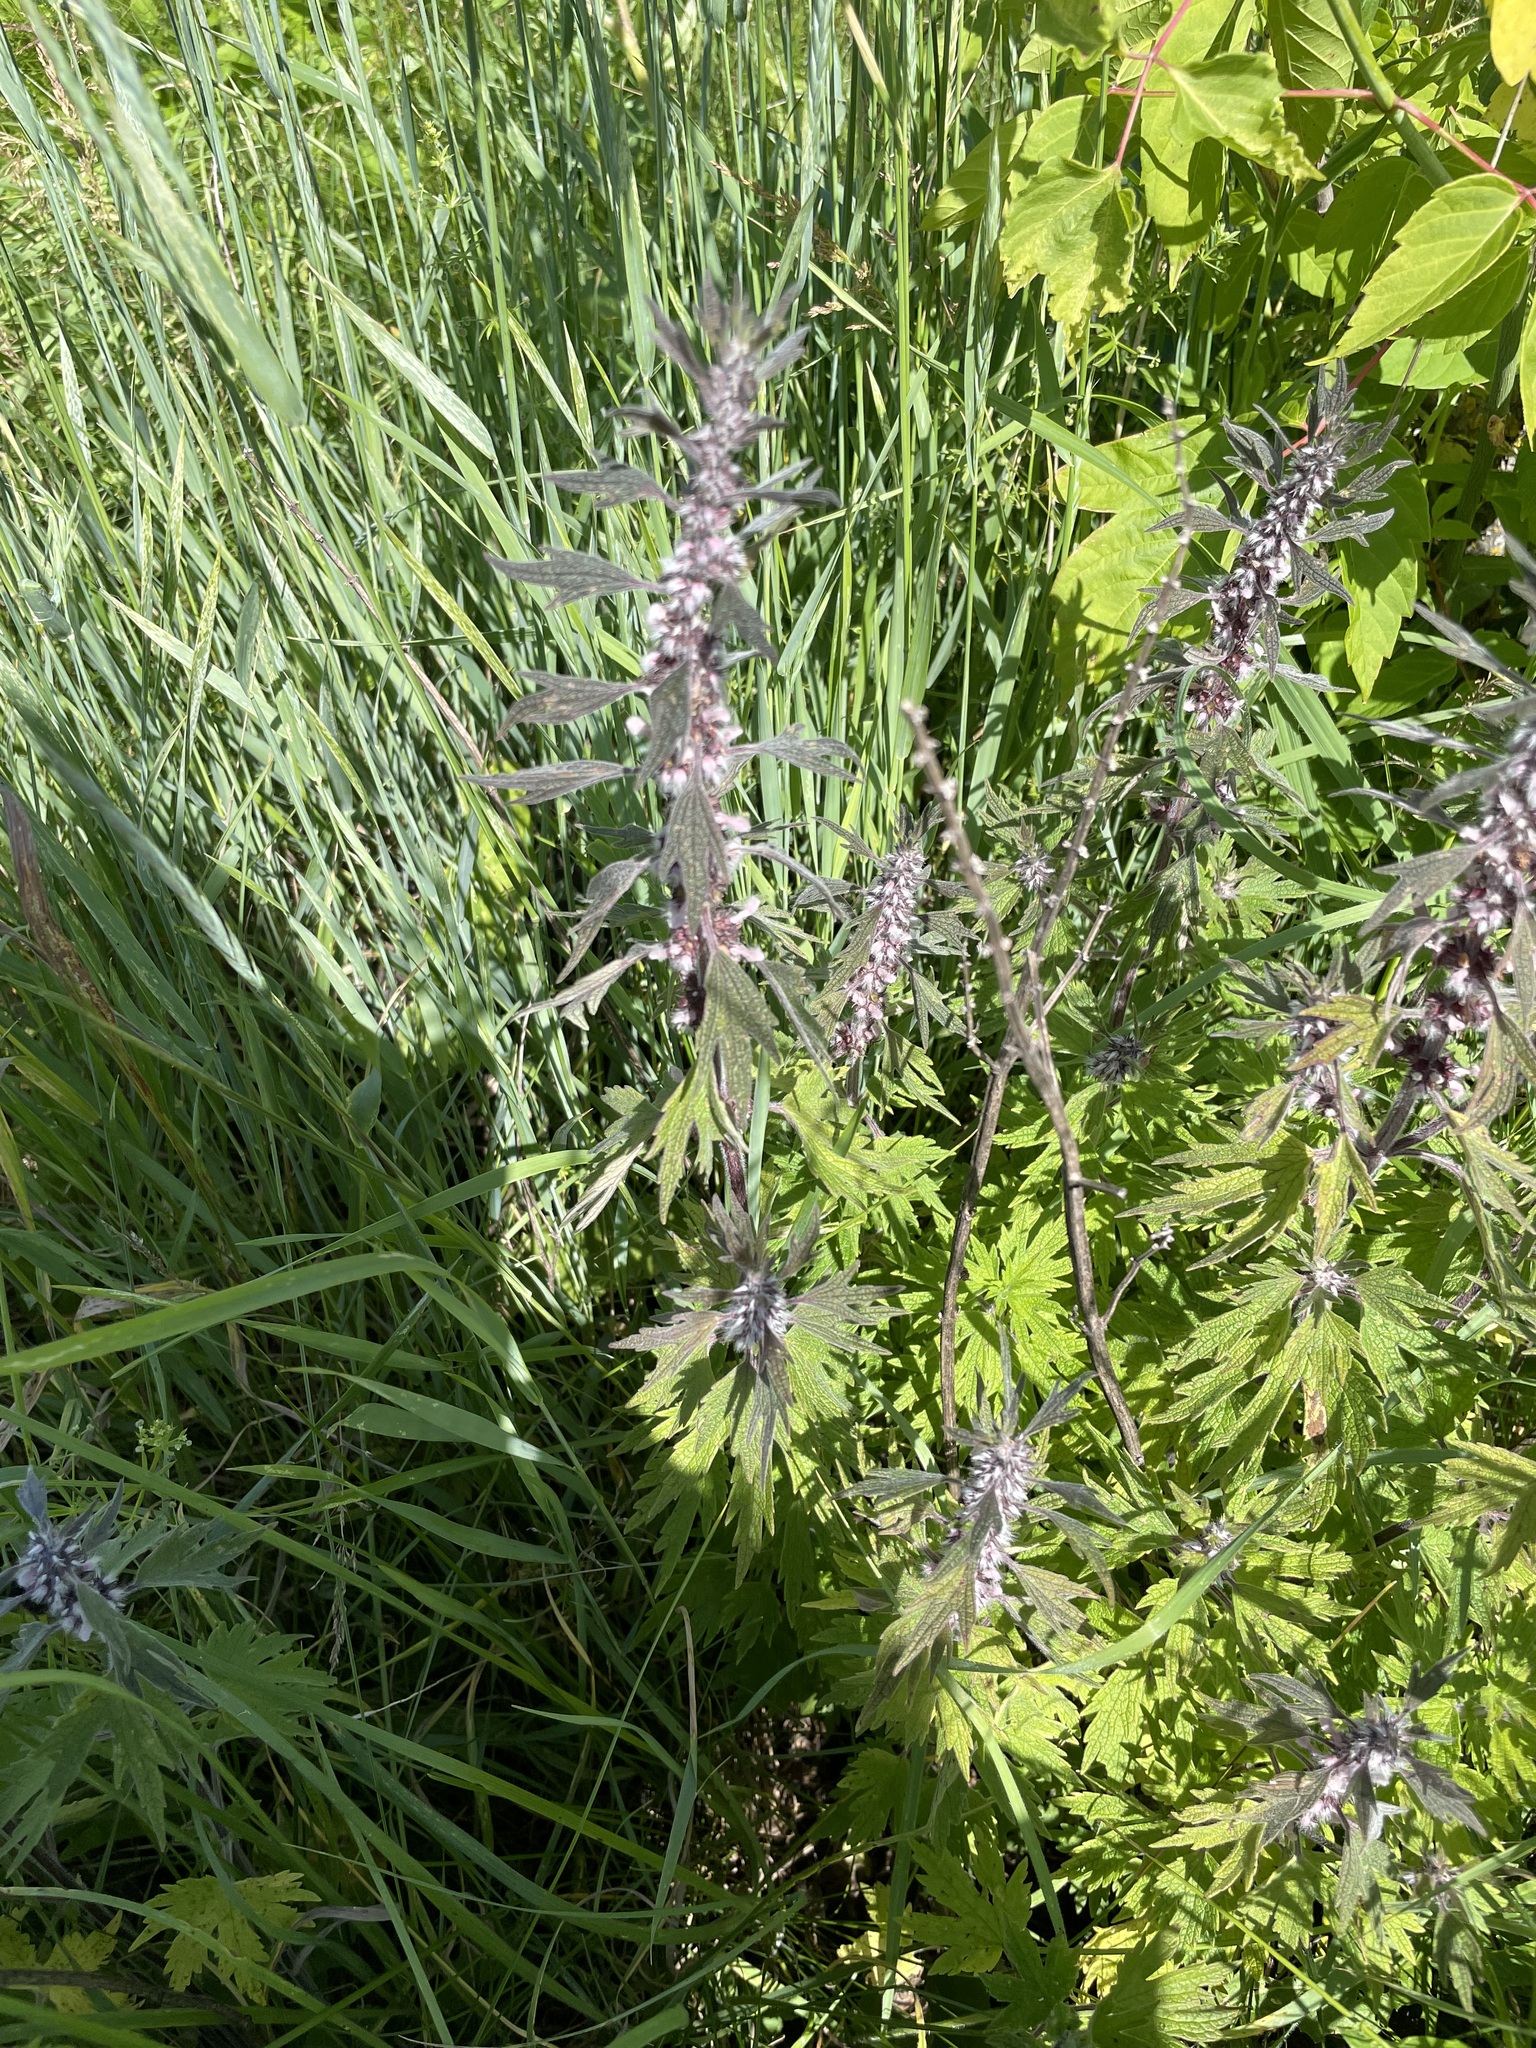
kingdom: Plantae
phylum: Tracheophyta
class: Magnoliopsida
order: Lamiales
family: Lamiaceae
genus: Leonurus
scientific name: Leonurus quinquelobatus
